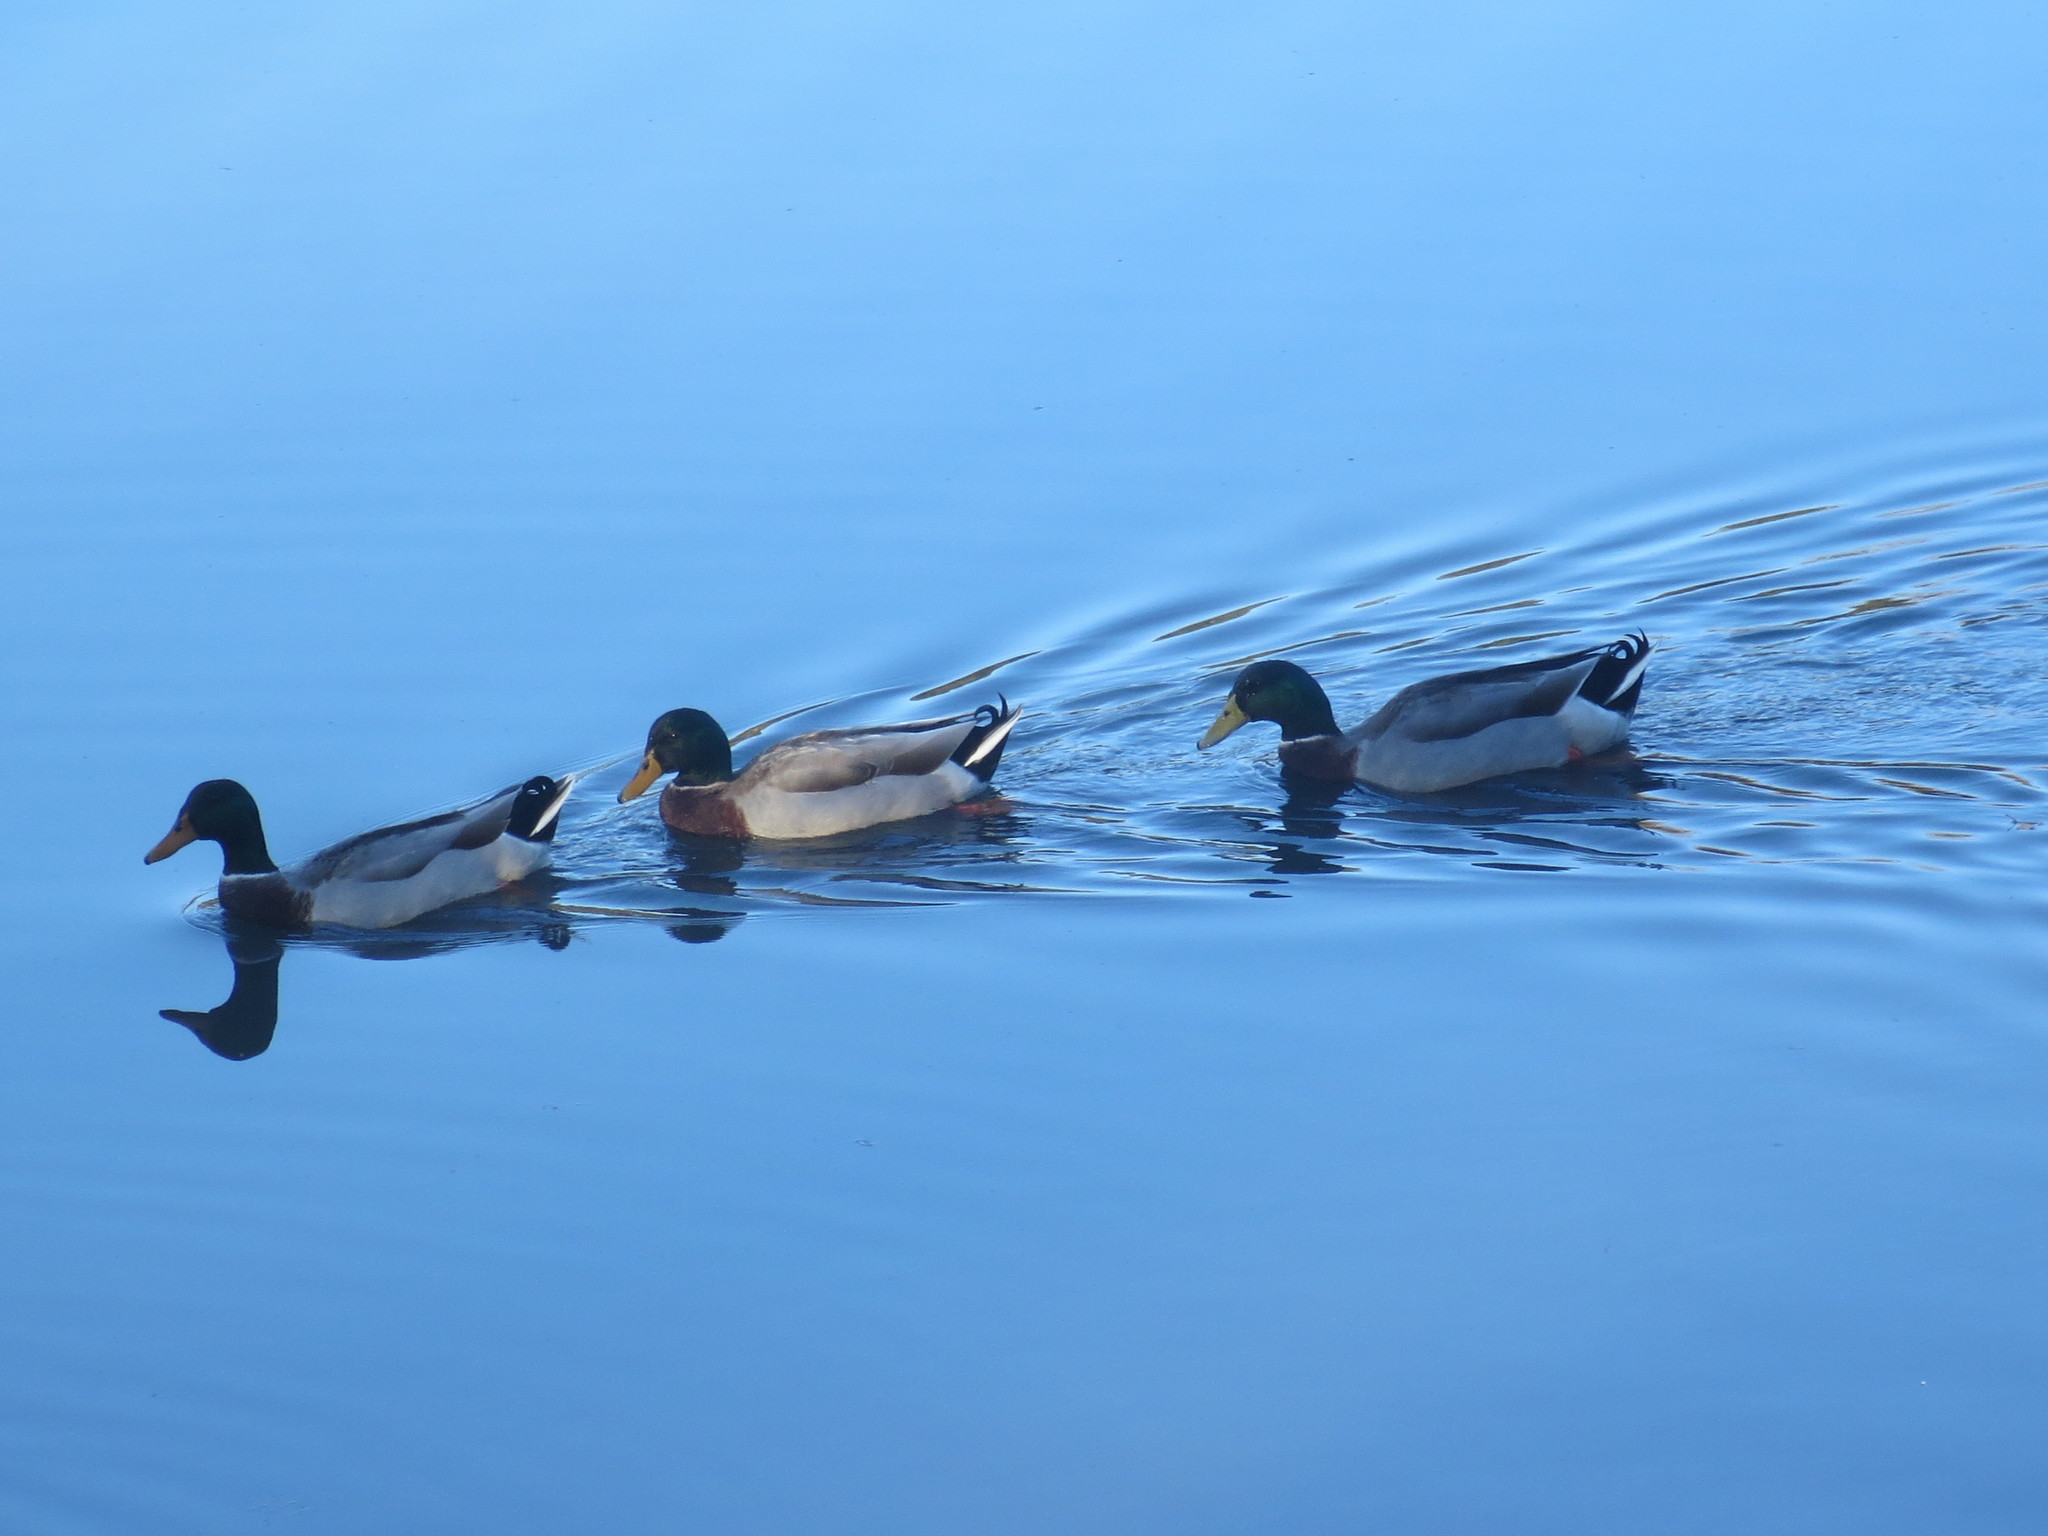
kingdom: Animalia
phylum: Chordata
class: Aves
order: Anseriformes
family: Anatidae
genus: Anas
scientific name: Anas platyrhynchos
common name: Mallard
